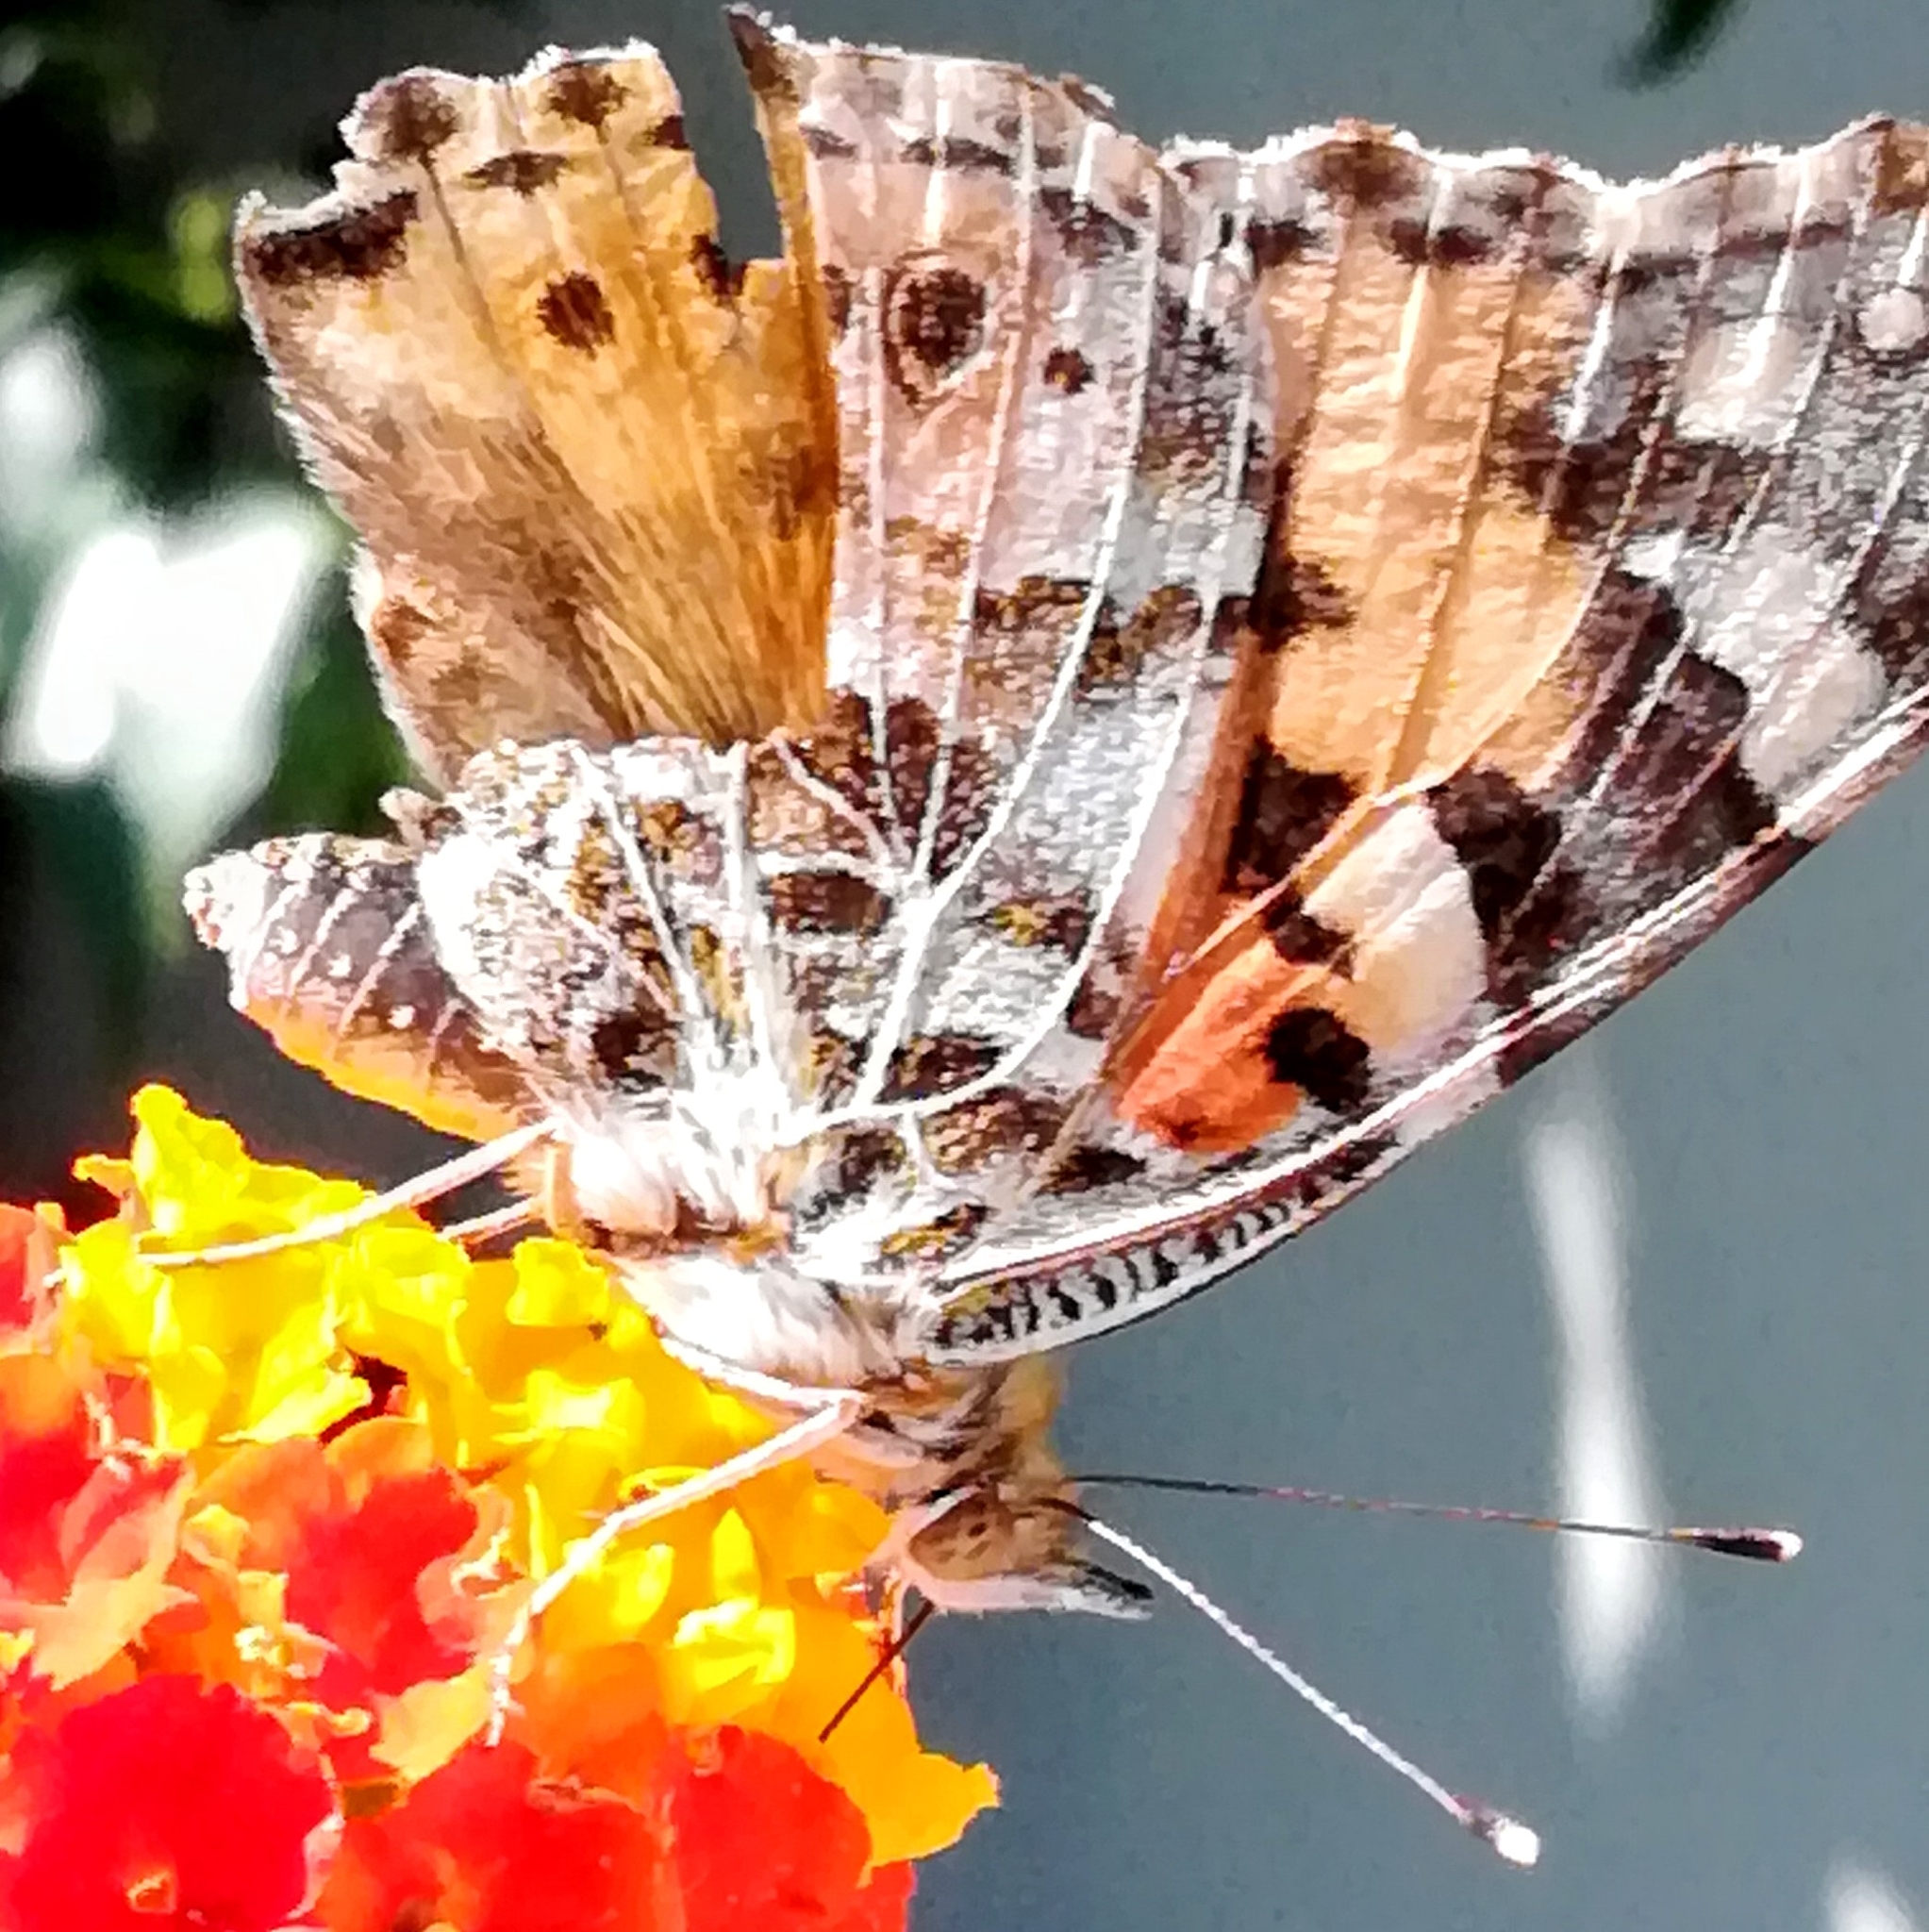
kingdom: Animalia
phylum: Arthropoda
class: Insecta
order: Lepidoptera
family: Nymphalidae
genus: Vanessa
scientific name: Vanessa cardui
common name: Painted lady
